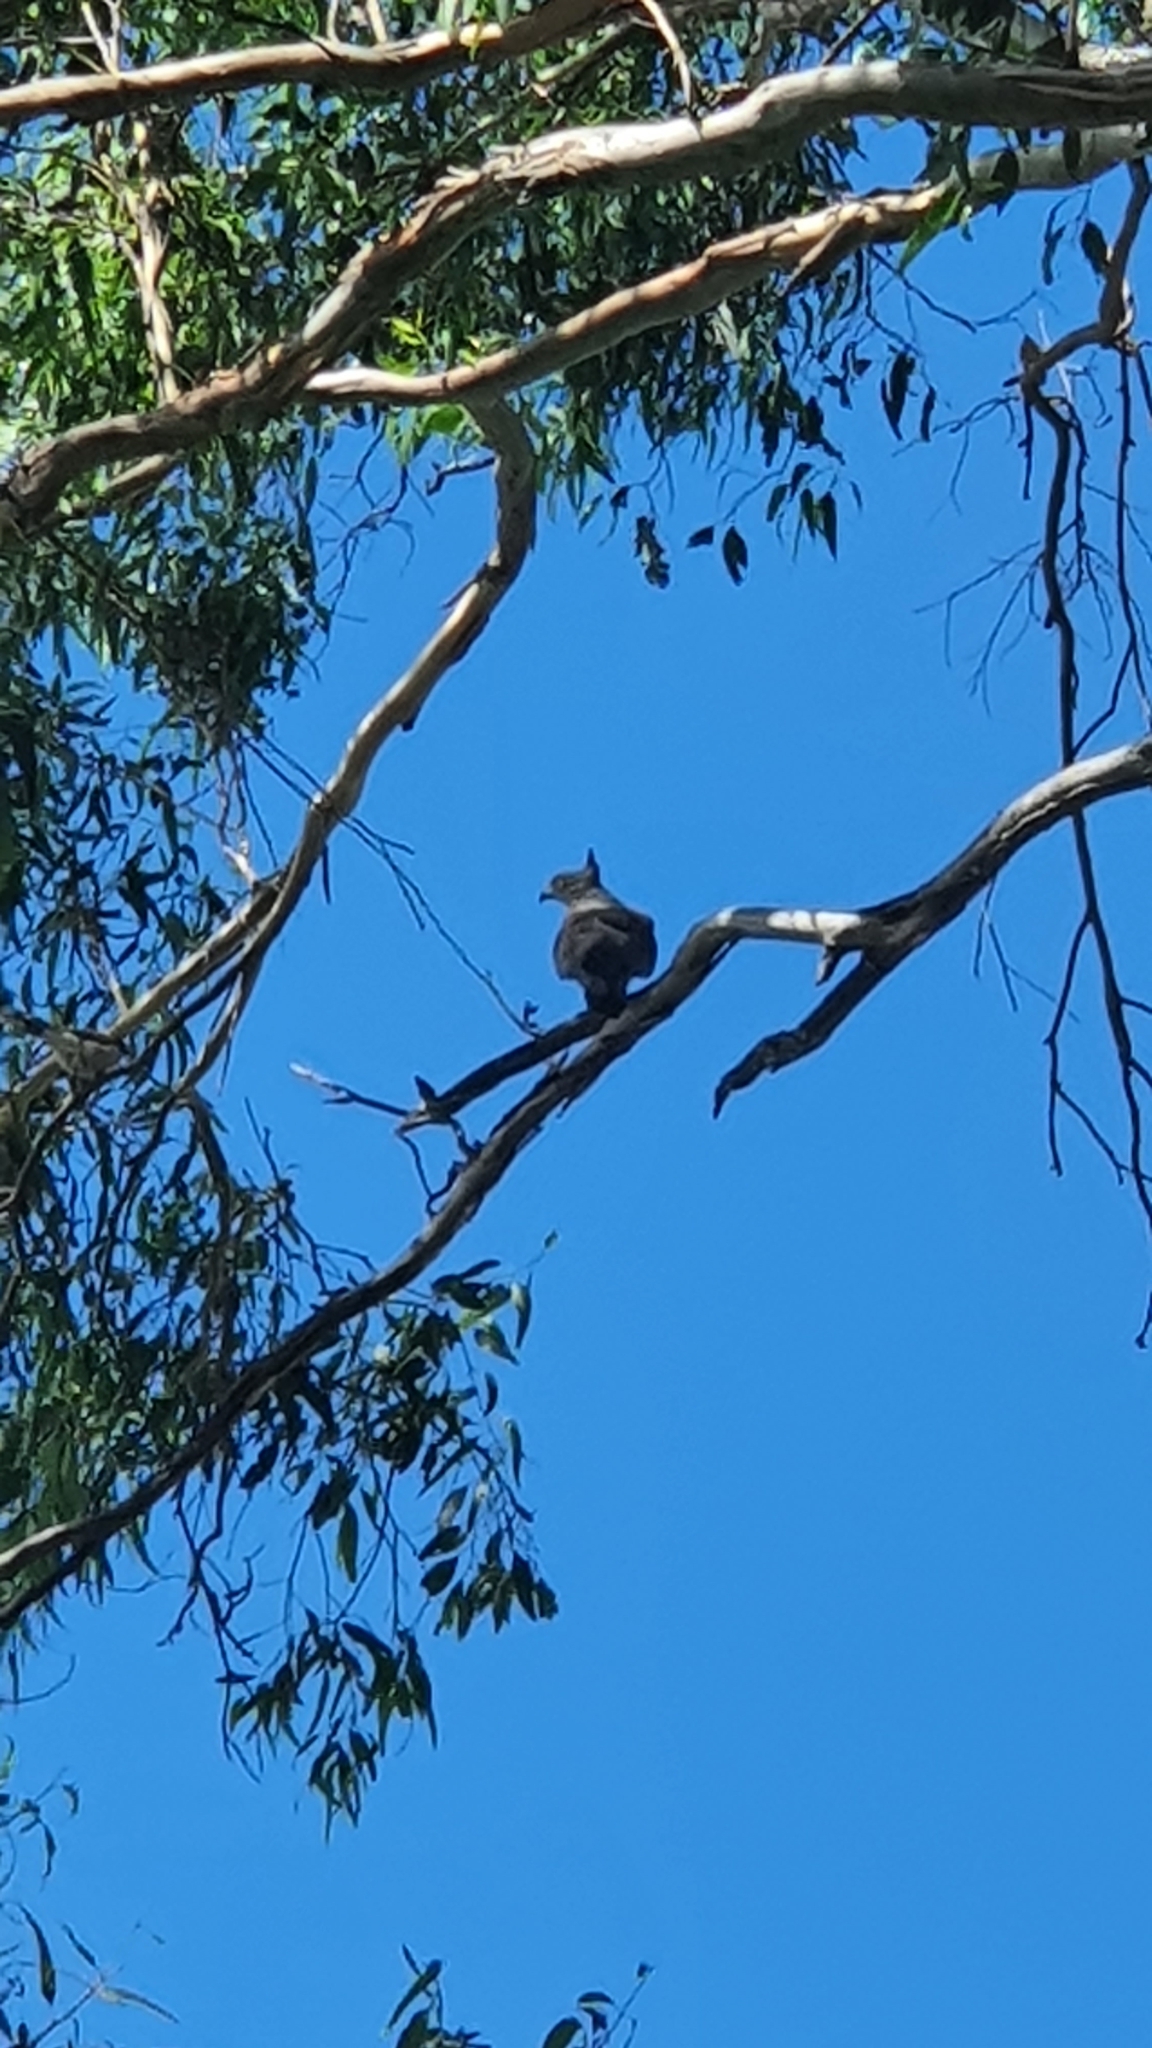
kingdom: Animalia
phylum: Chordata
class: Aves
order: Accipitriformes
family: Accipitridae
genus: Aviceda
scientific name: Aviceda subcristata
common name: Pacific baza
